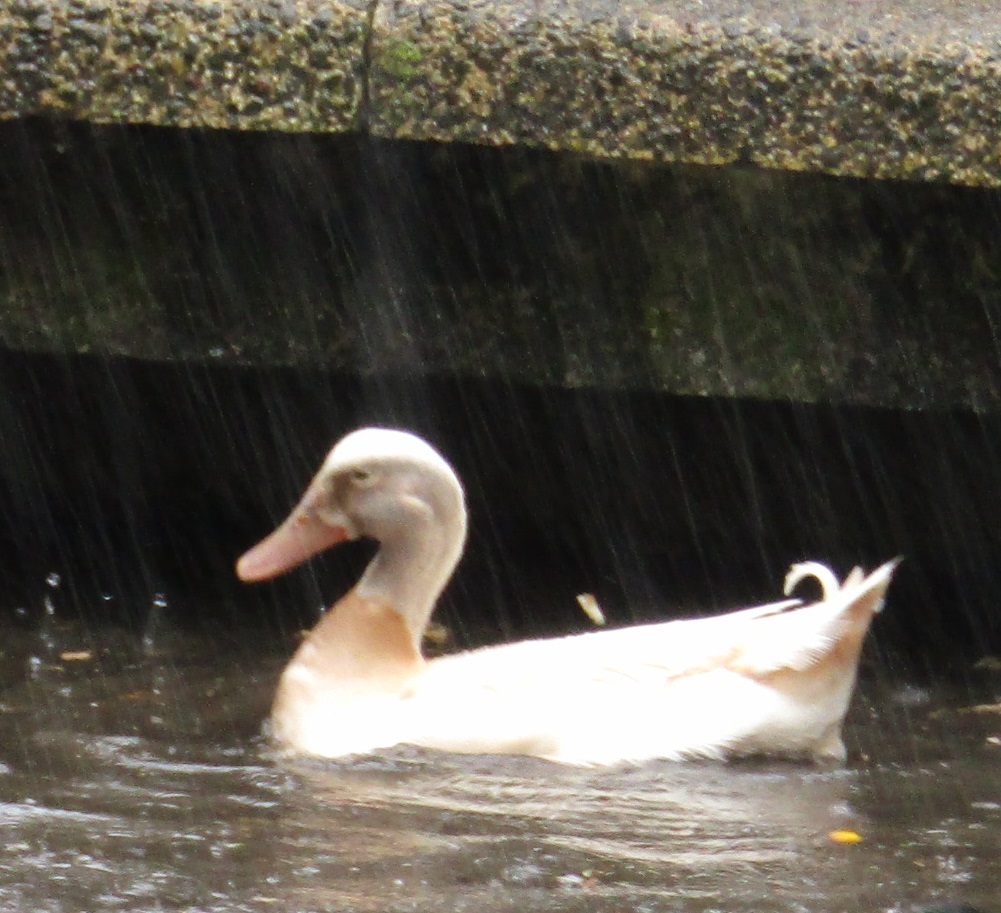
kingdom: Animalia
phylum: Chordata
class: Aves
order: Anseriformes
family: Anatidae
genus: Anas
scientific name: Anas platyrhynchos
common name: Mallard
